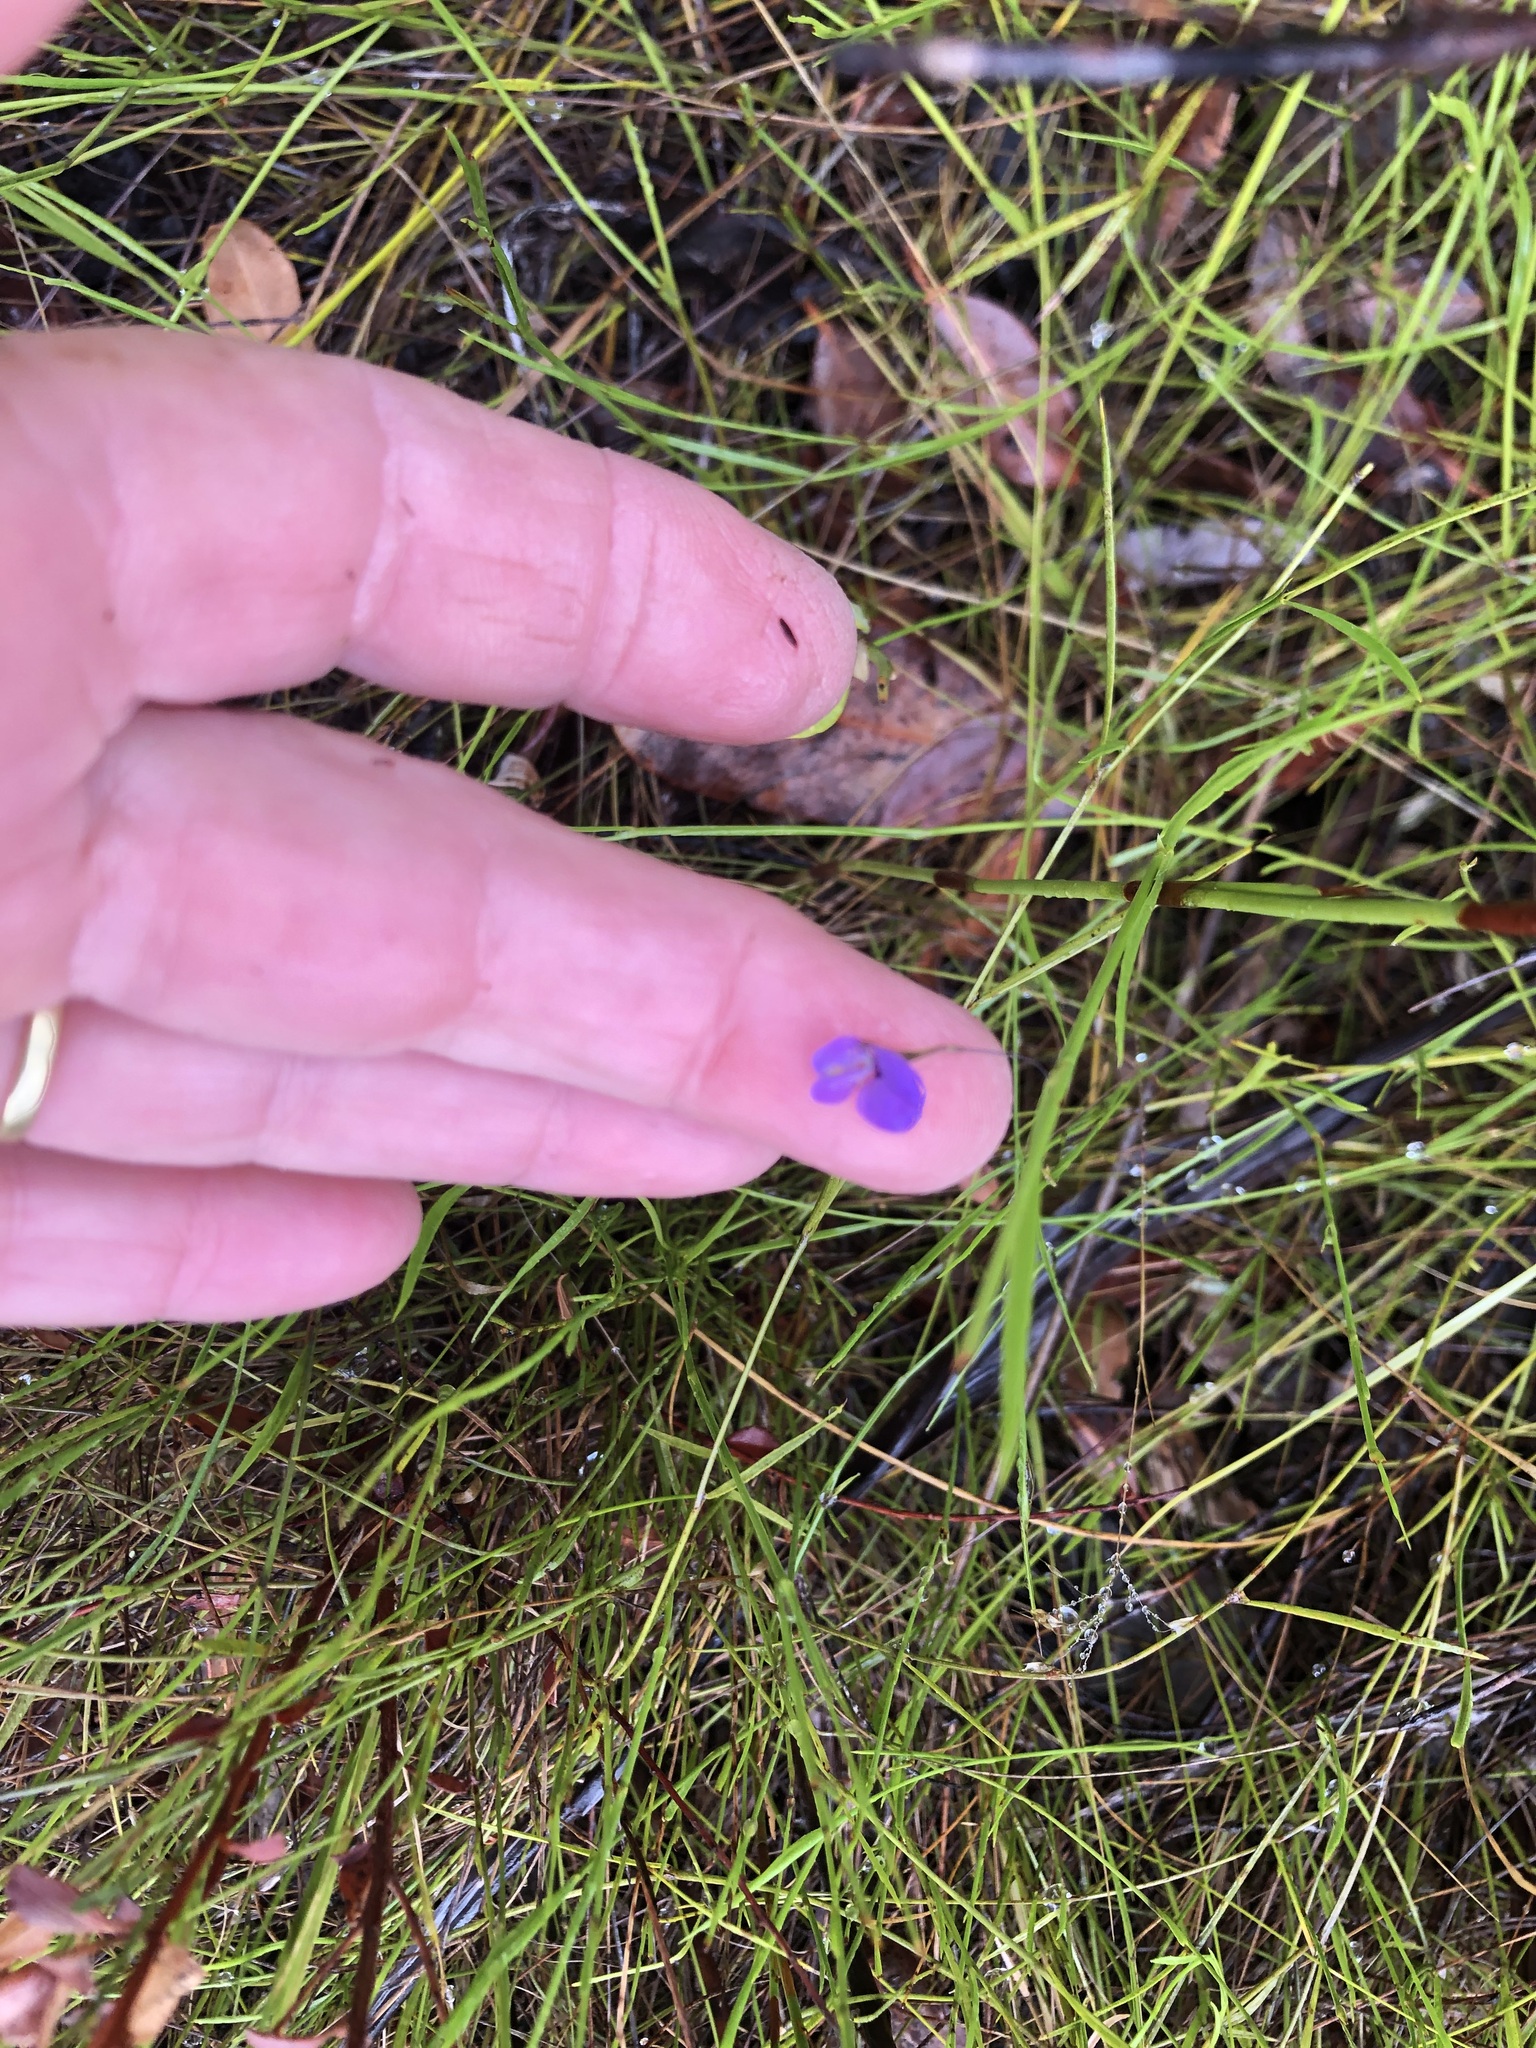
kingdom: Plantae
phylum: Tracheophyta
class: Magnoliopsida
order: Fabales
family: Fabaceae
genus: Psoralea
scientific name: Psoralea laxa
